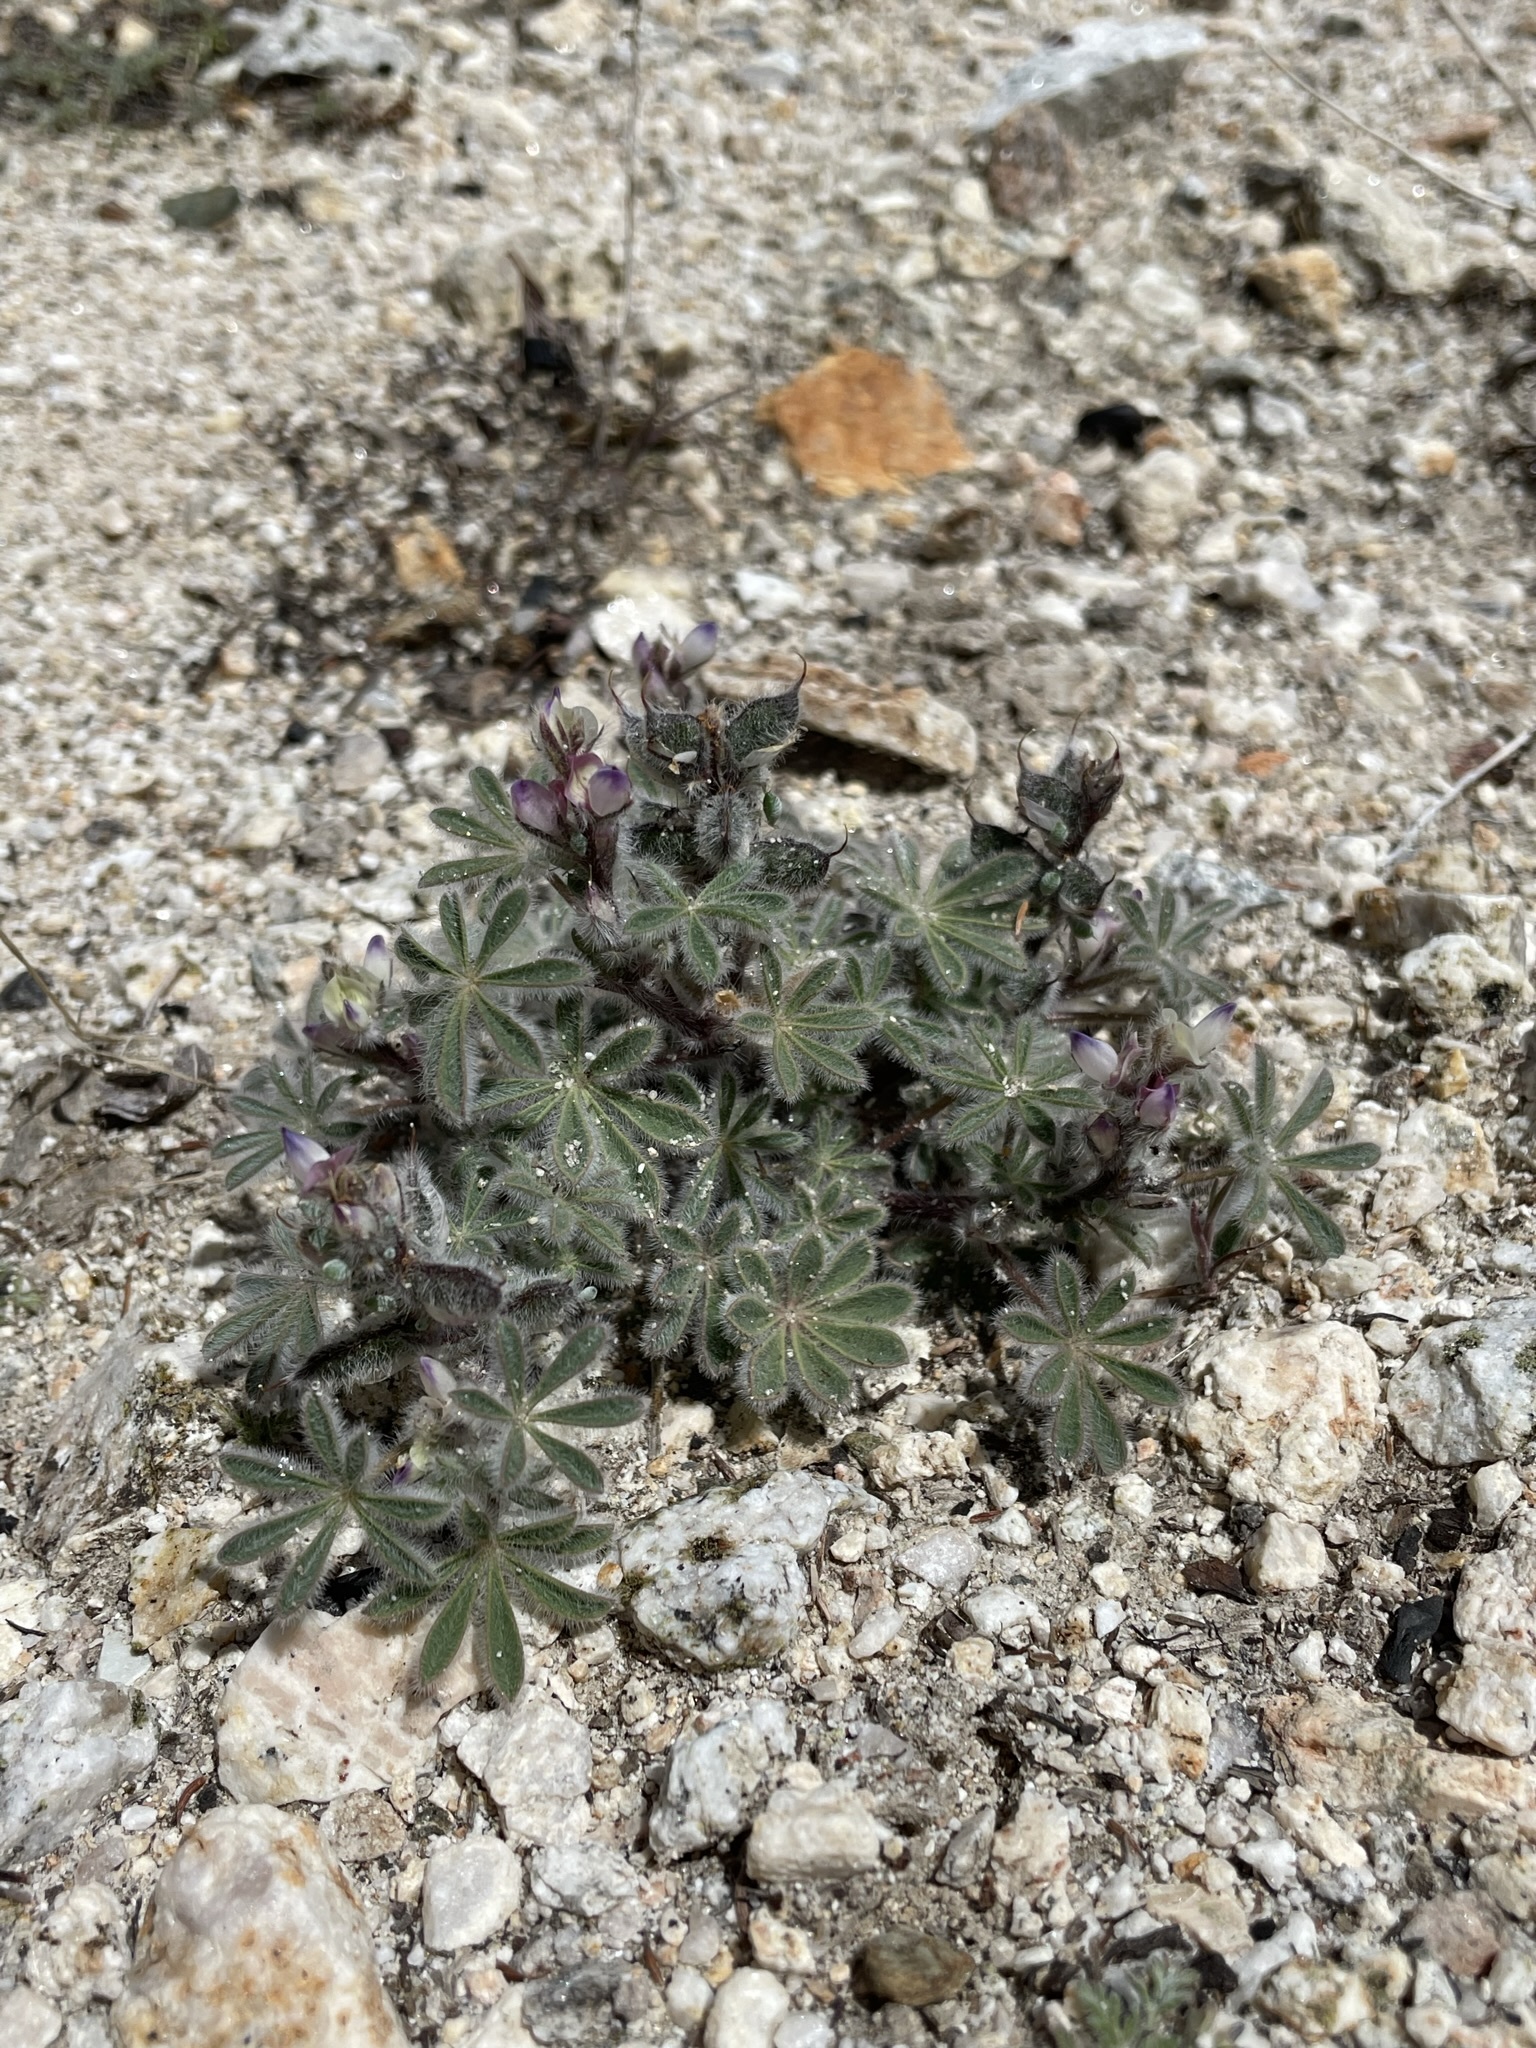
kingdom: Plantae
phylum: Tracheophyta
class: Magnoliopsida
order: Fabales
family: Fabaceae
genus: Lupinus
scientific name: Lupinus concinnus
